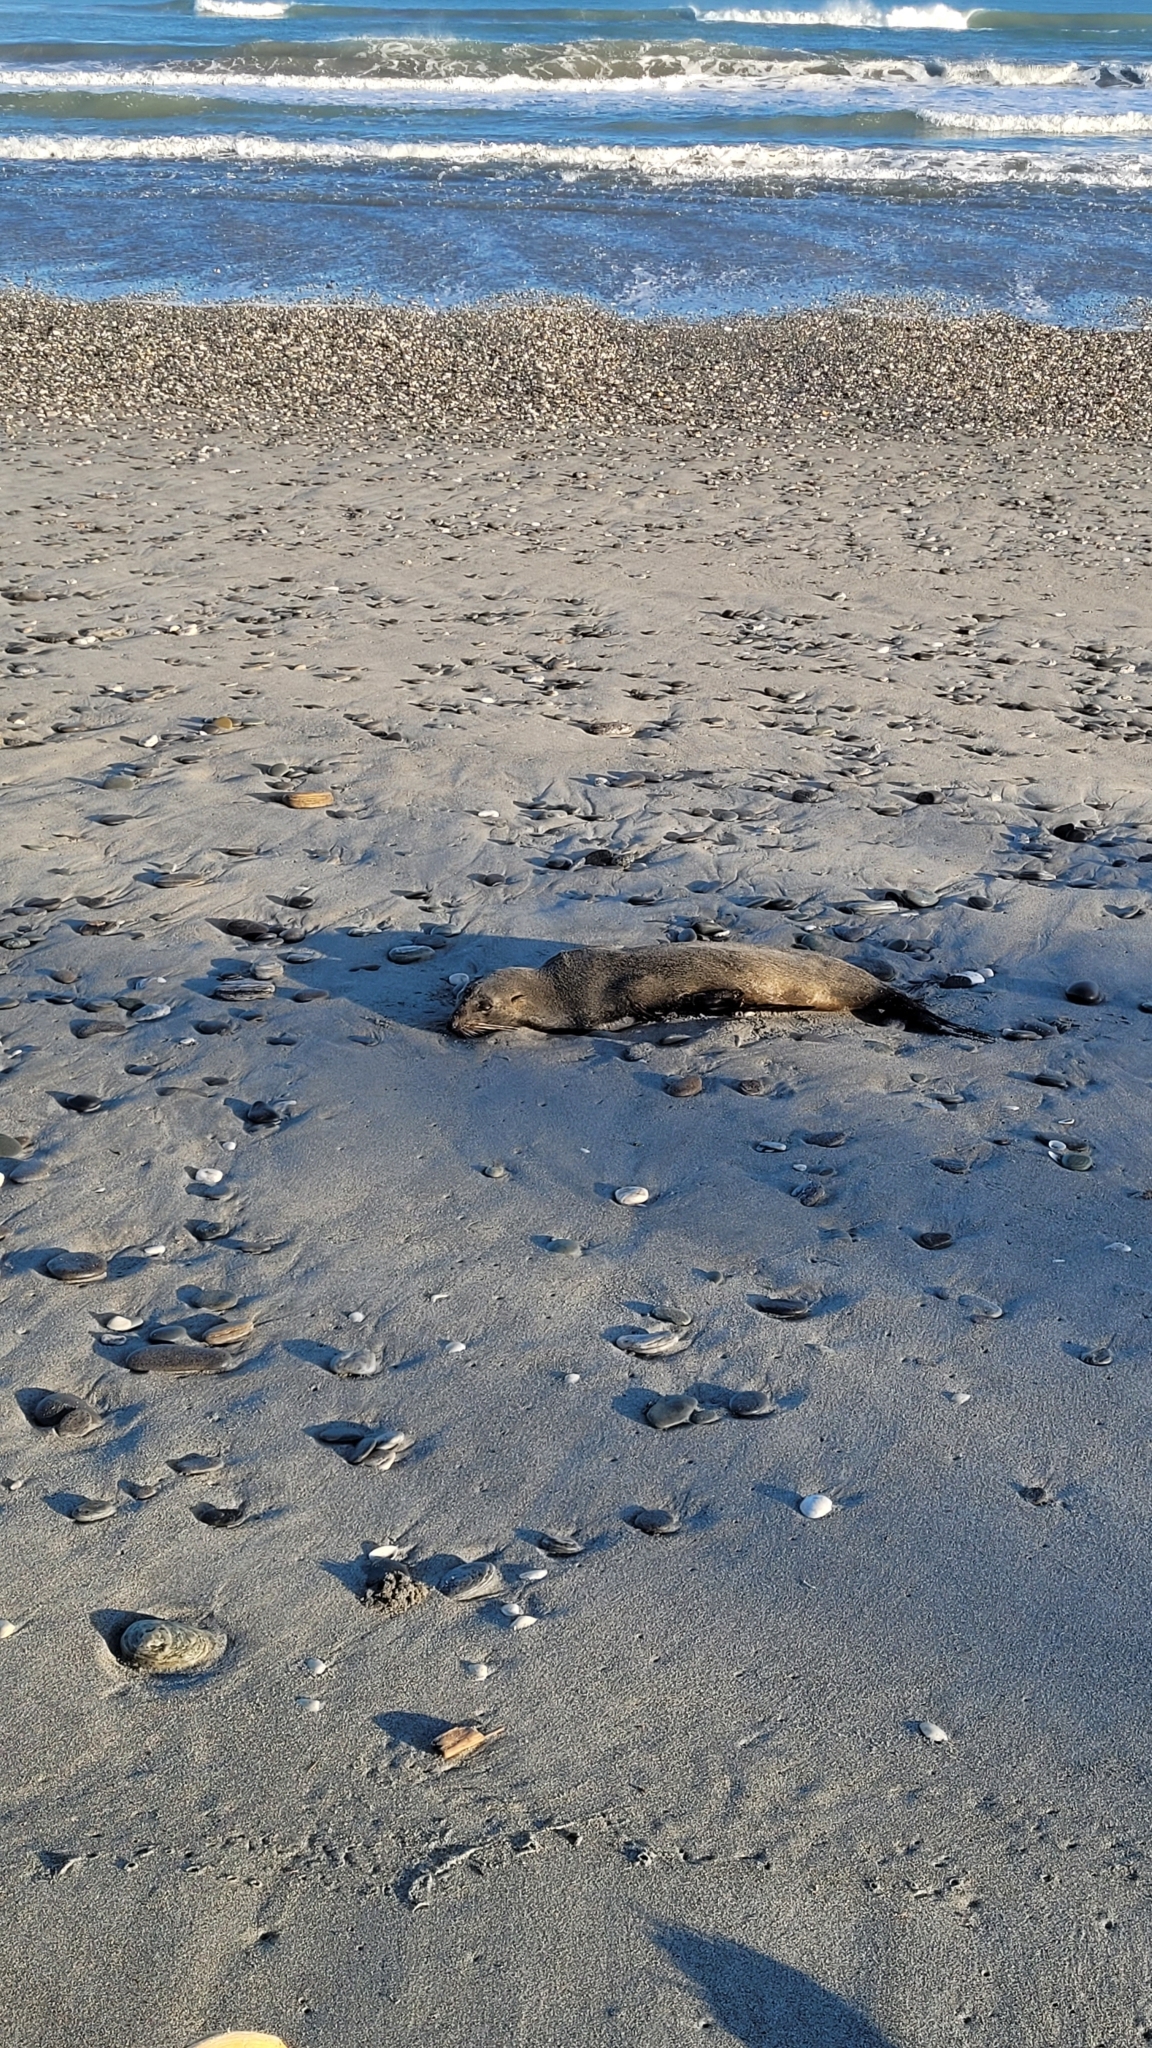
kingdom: Animalia
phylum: Chordata
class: Mammalia
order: Carnivora
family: Otariidae
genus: Arctocephalus
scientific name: Arctocephalus forsteri
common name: New zealand fur seal
